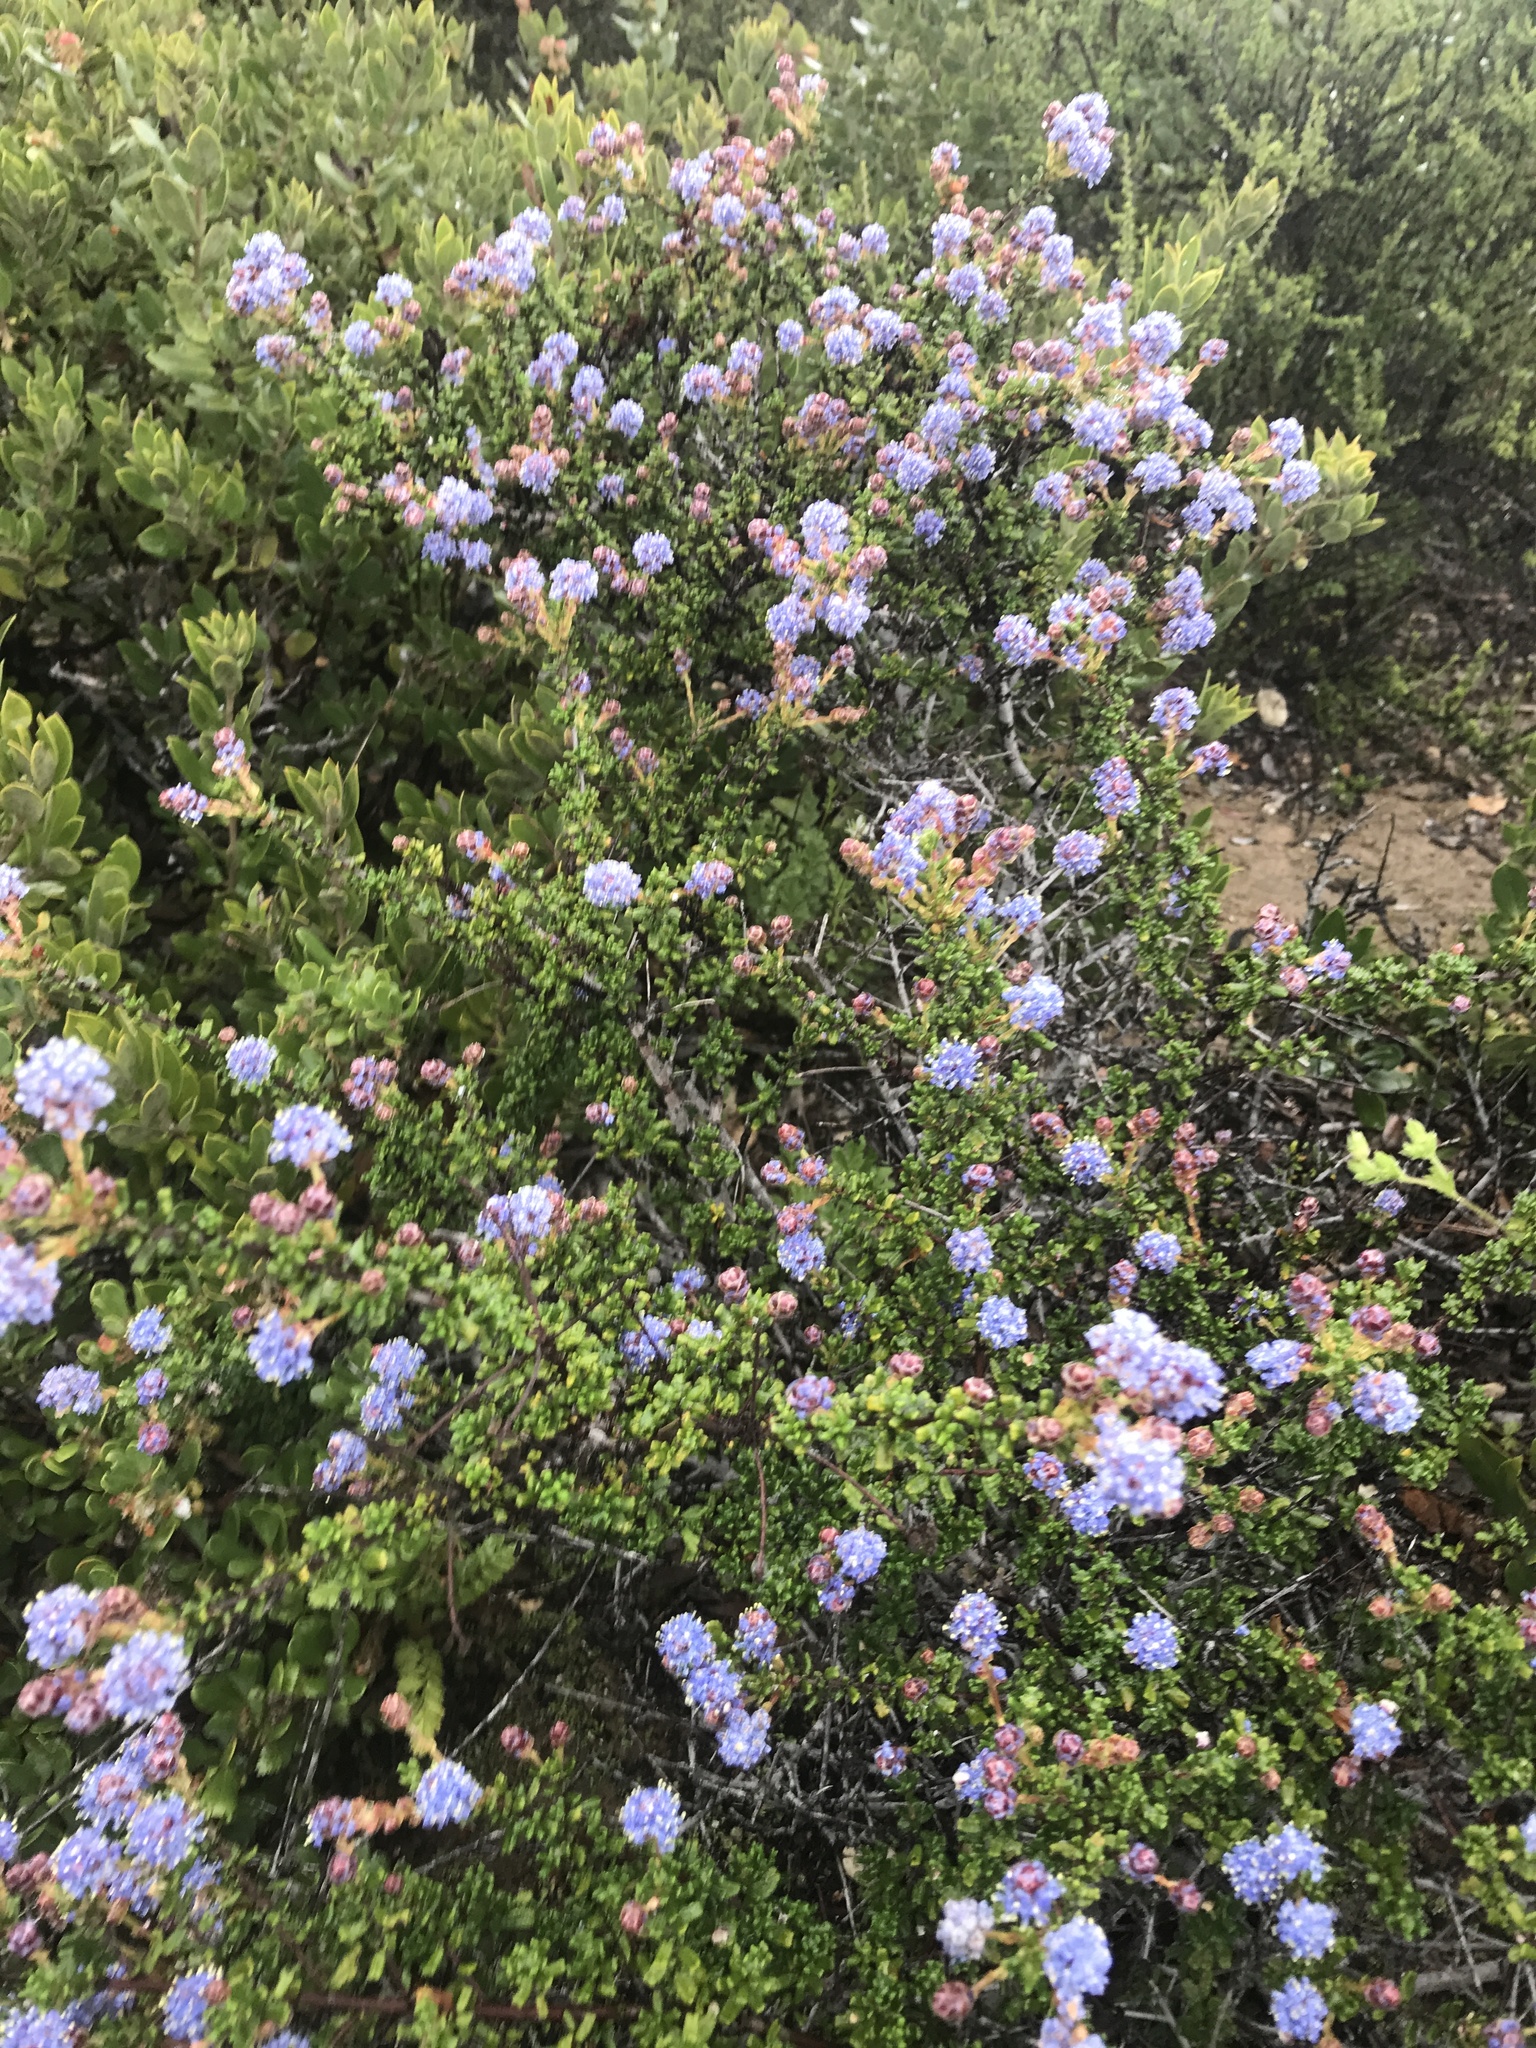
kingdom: Plantae
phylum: Tracheophyta
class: Magnoliopsida
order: Rosales
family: Rhamnaceae
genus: Ceanothus
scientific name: Ceanothus dentatus
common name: Crop-leaf ceanothus
